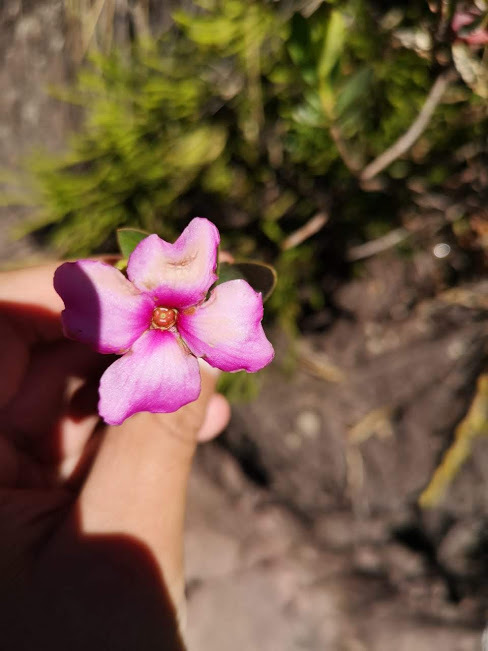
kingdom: Plantae
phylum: Tracheophyta
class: Magnoliopsida
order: Myrtales
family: Melastomataceae
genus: Bucquetia
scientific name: Bucquetia glutinosa
